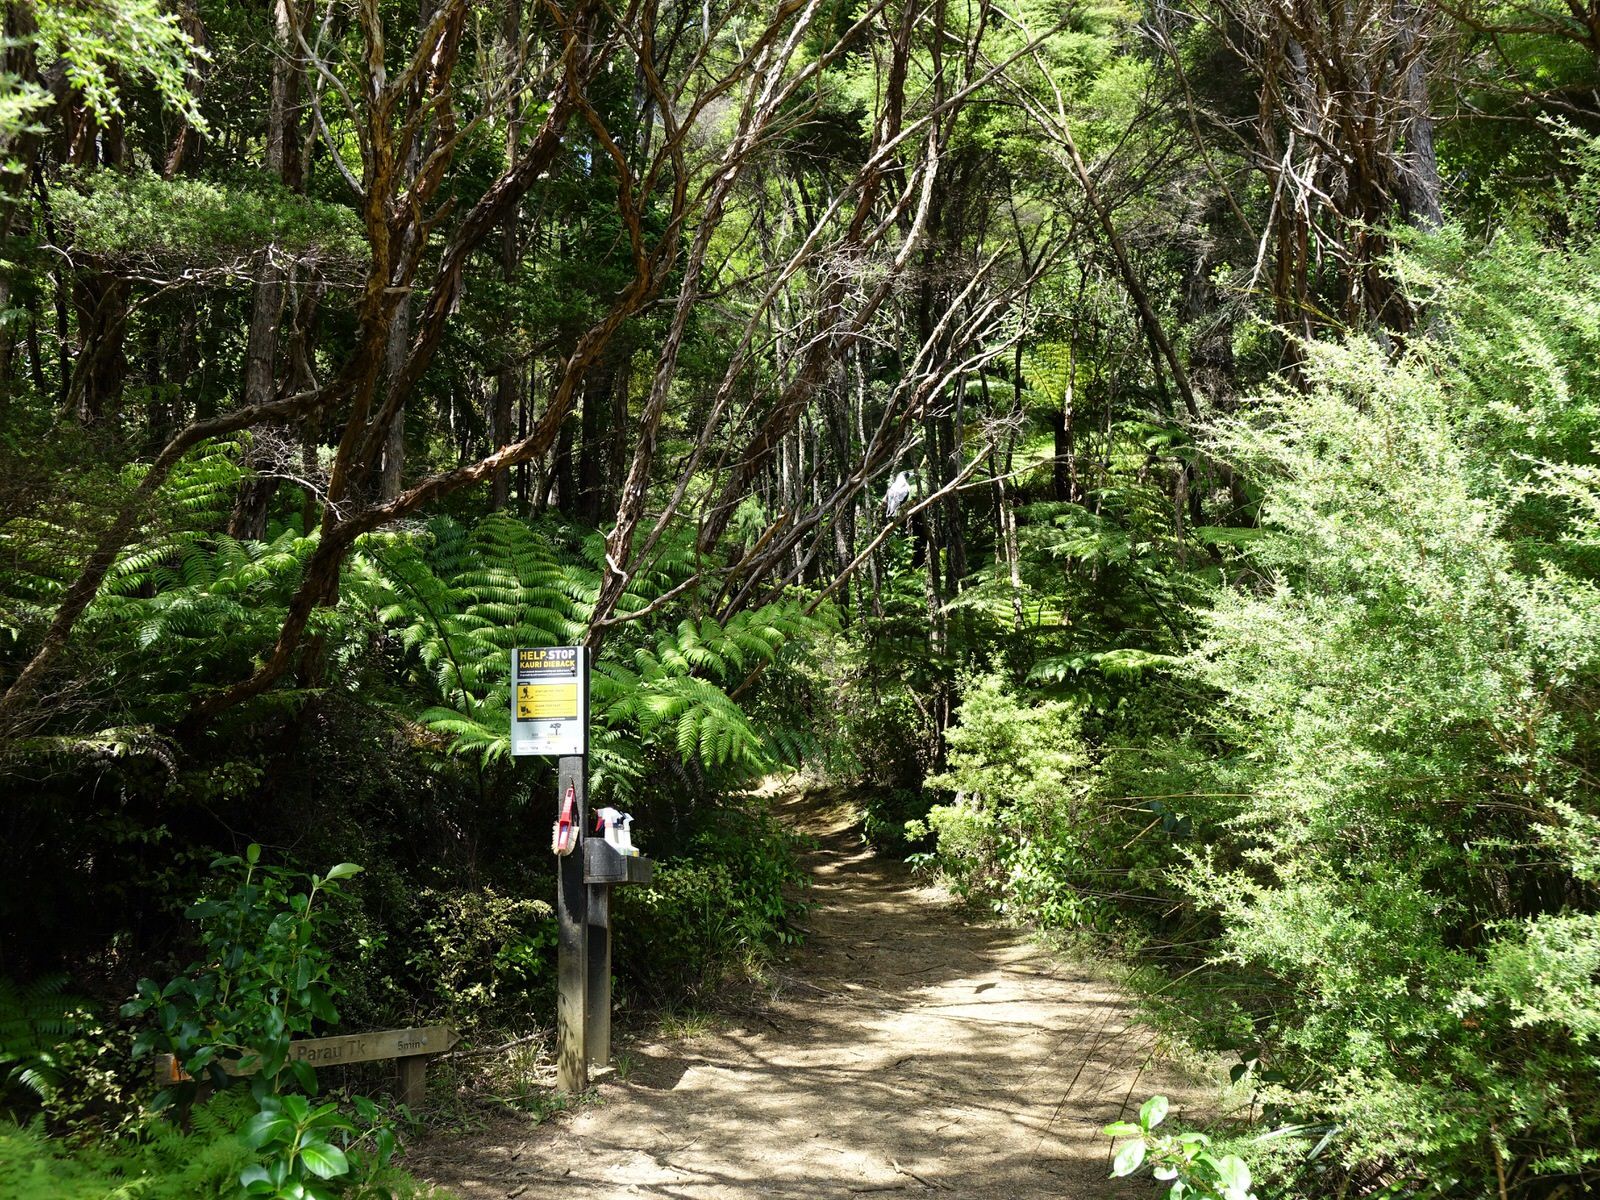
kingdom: Animalia
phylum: Chordata
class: Aves
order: Passeriformes
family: Cracticidae
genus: Gymnorhina
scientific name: Gymnorhina tibicen
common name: Australian magpie
